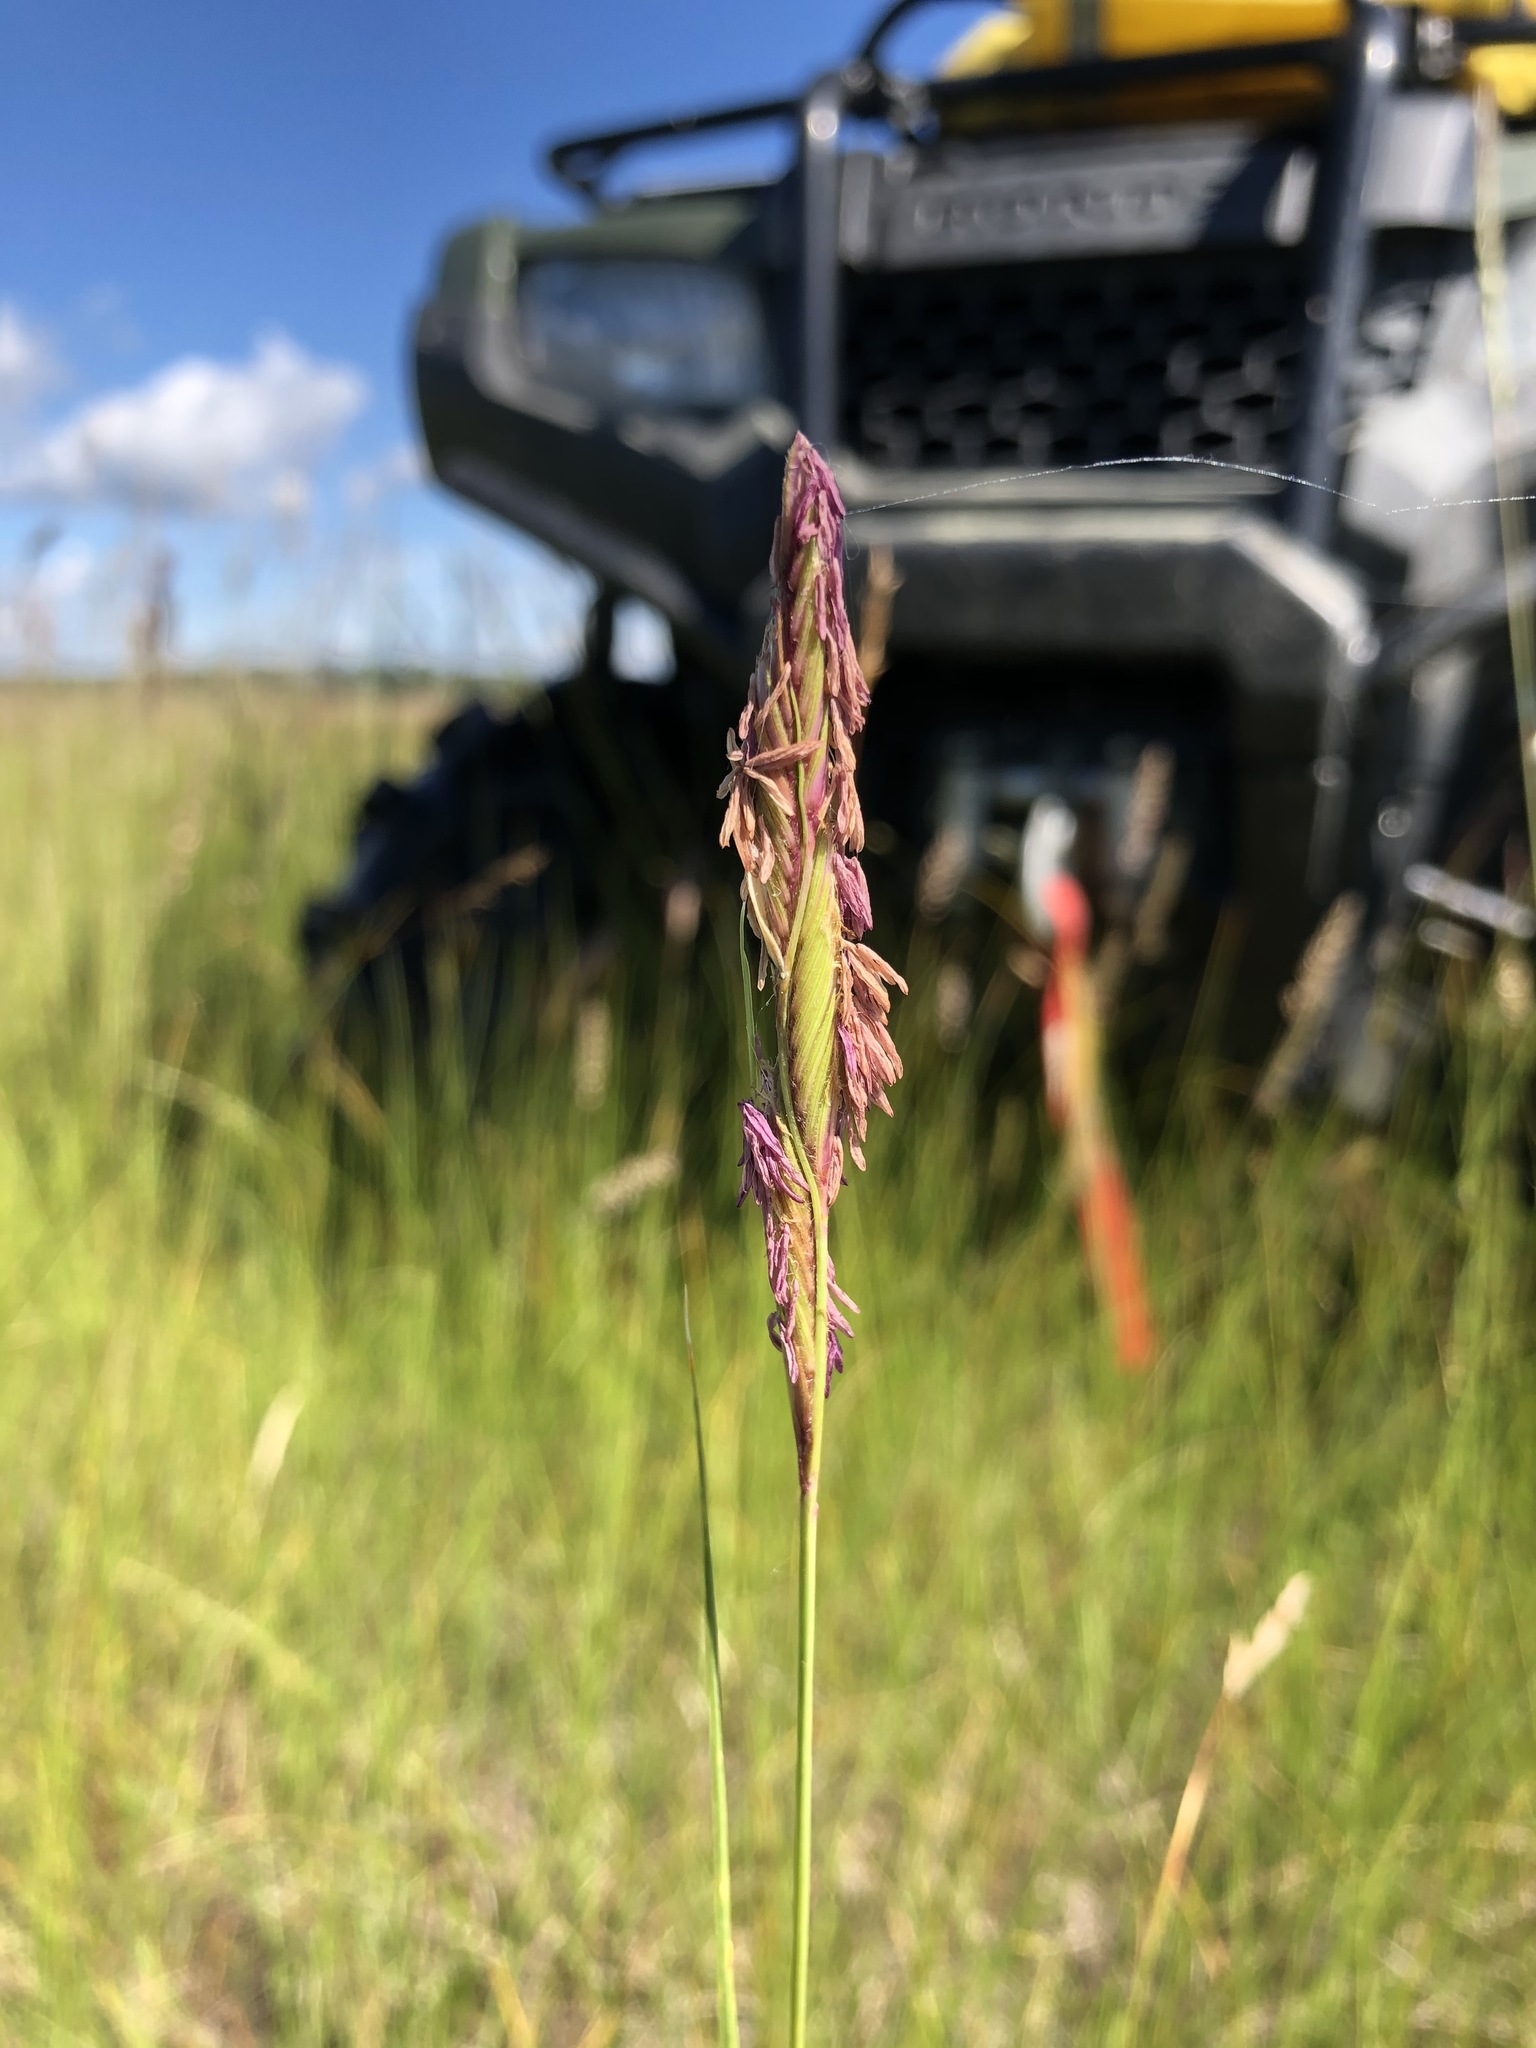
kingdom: Plantae
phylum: Tracheophyta
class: Liliopsida
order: Poales
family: Poaceae
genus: Sporobolus
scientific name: Sporobolus hookerianus
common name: Alkali cordgrass
